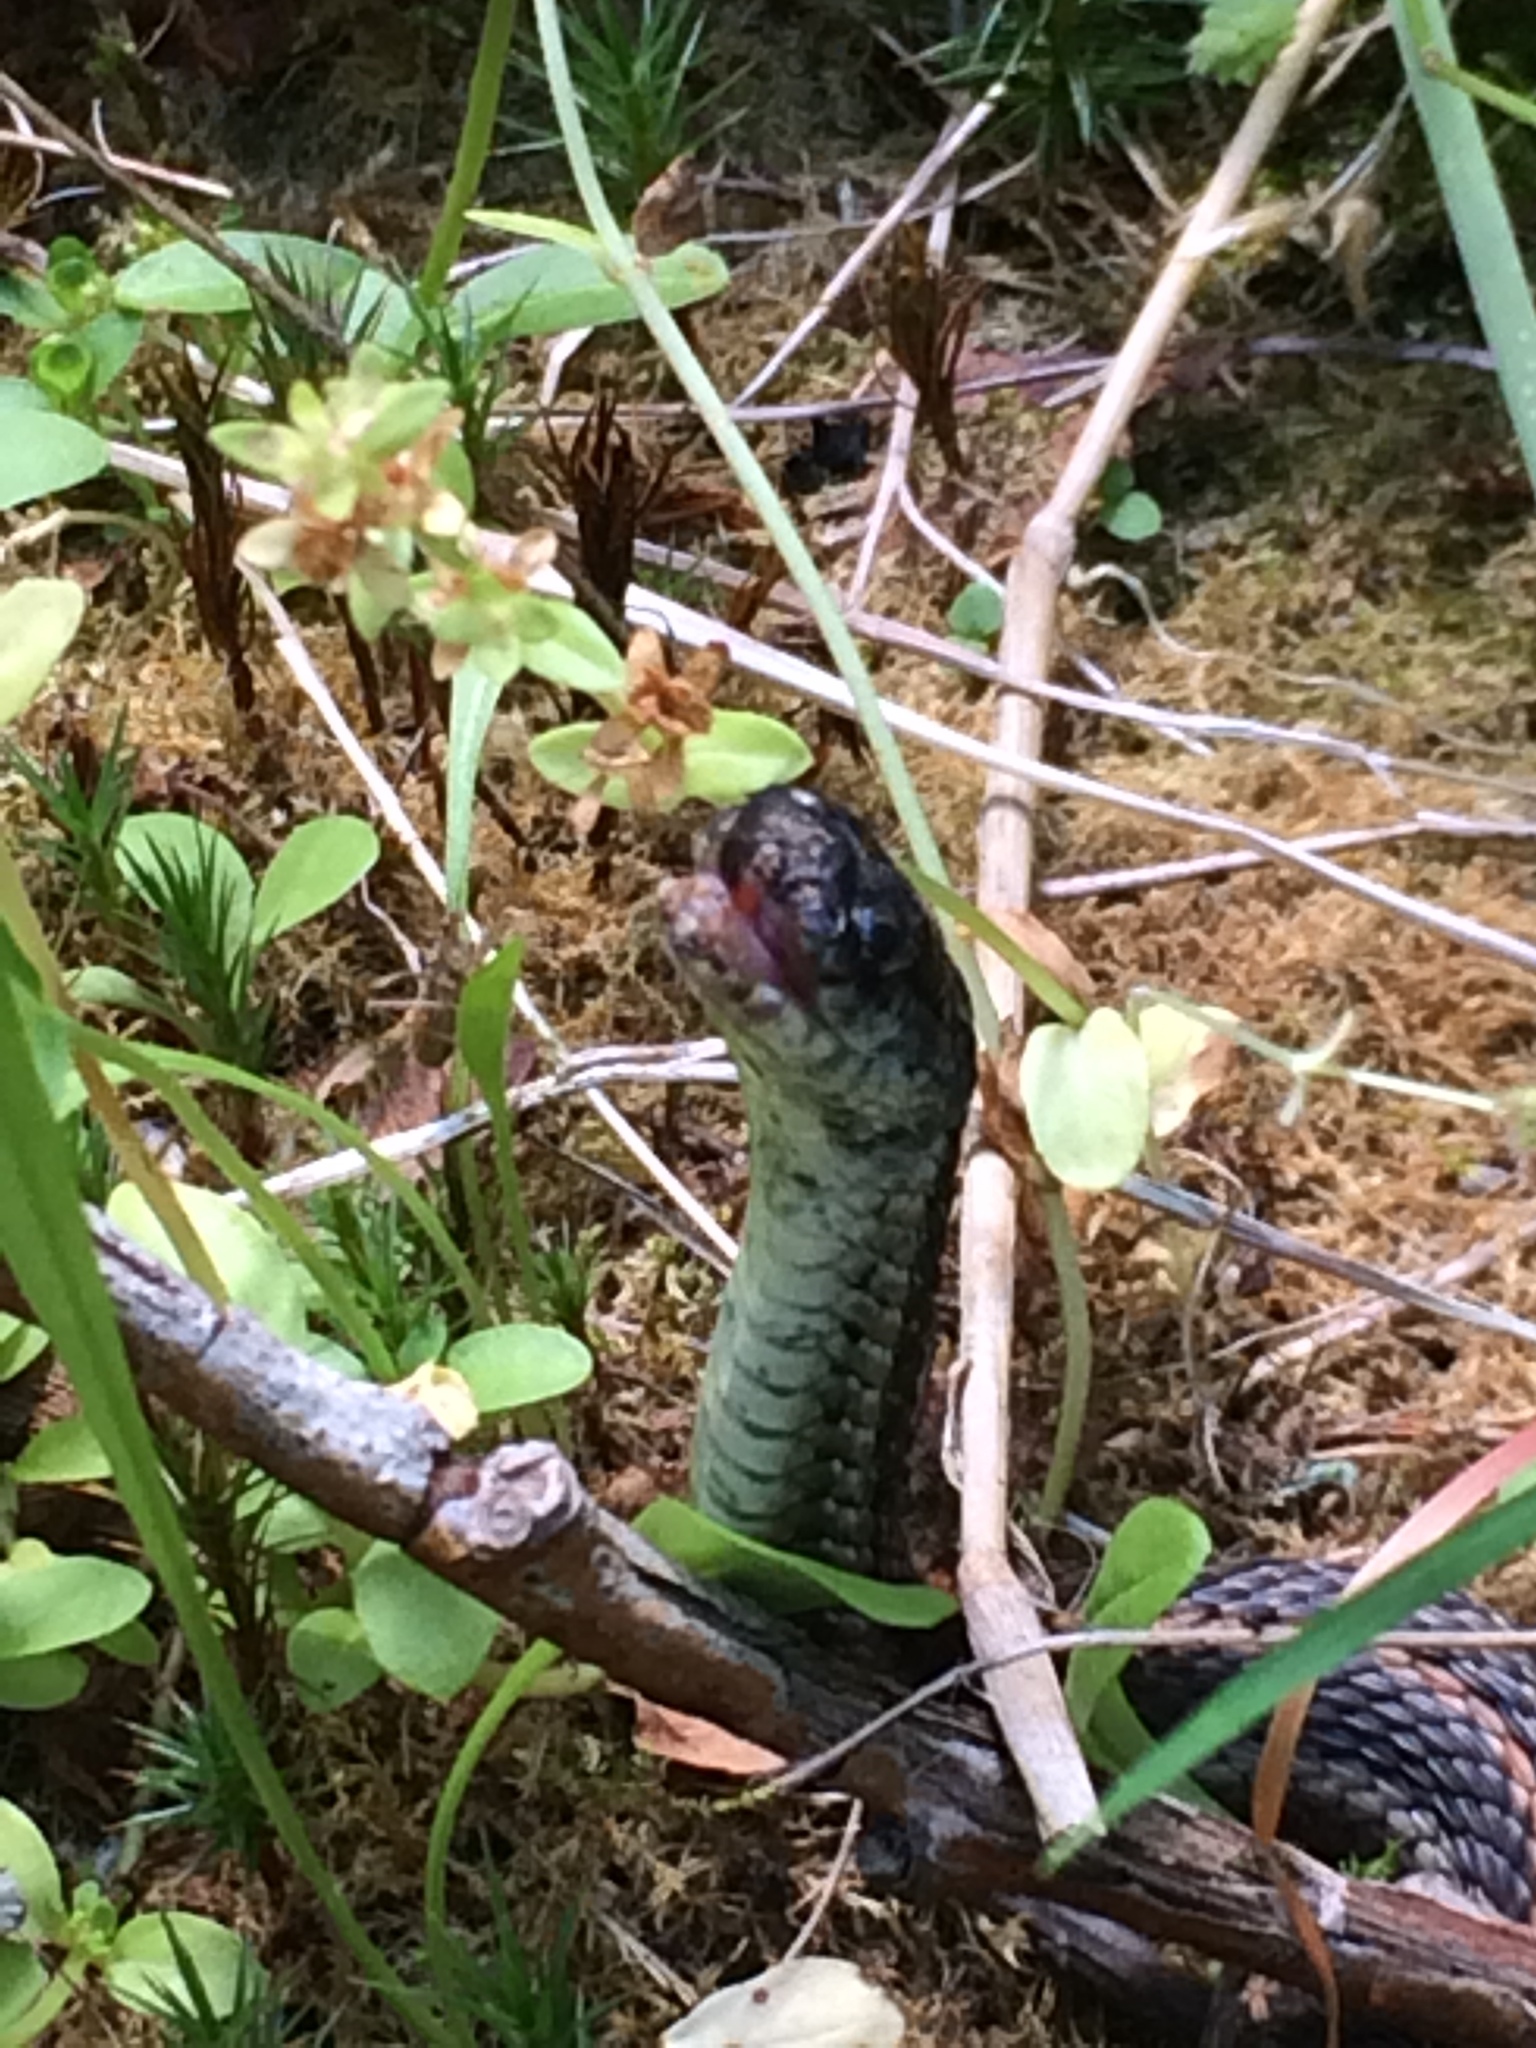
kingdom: Animalia
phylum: Chordata
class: Squamata
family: Colubridae
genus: Thamnophis
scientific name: Thamnophis ordinoides
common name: Northwestern garter snake
